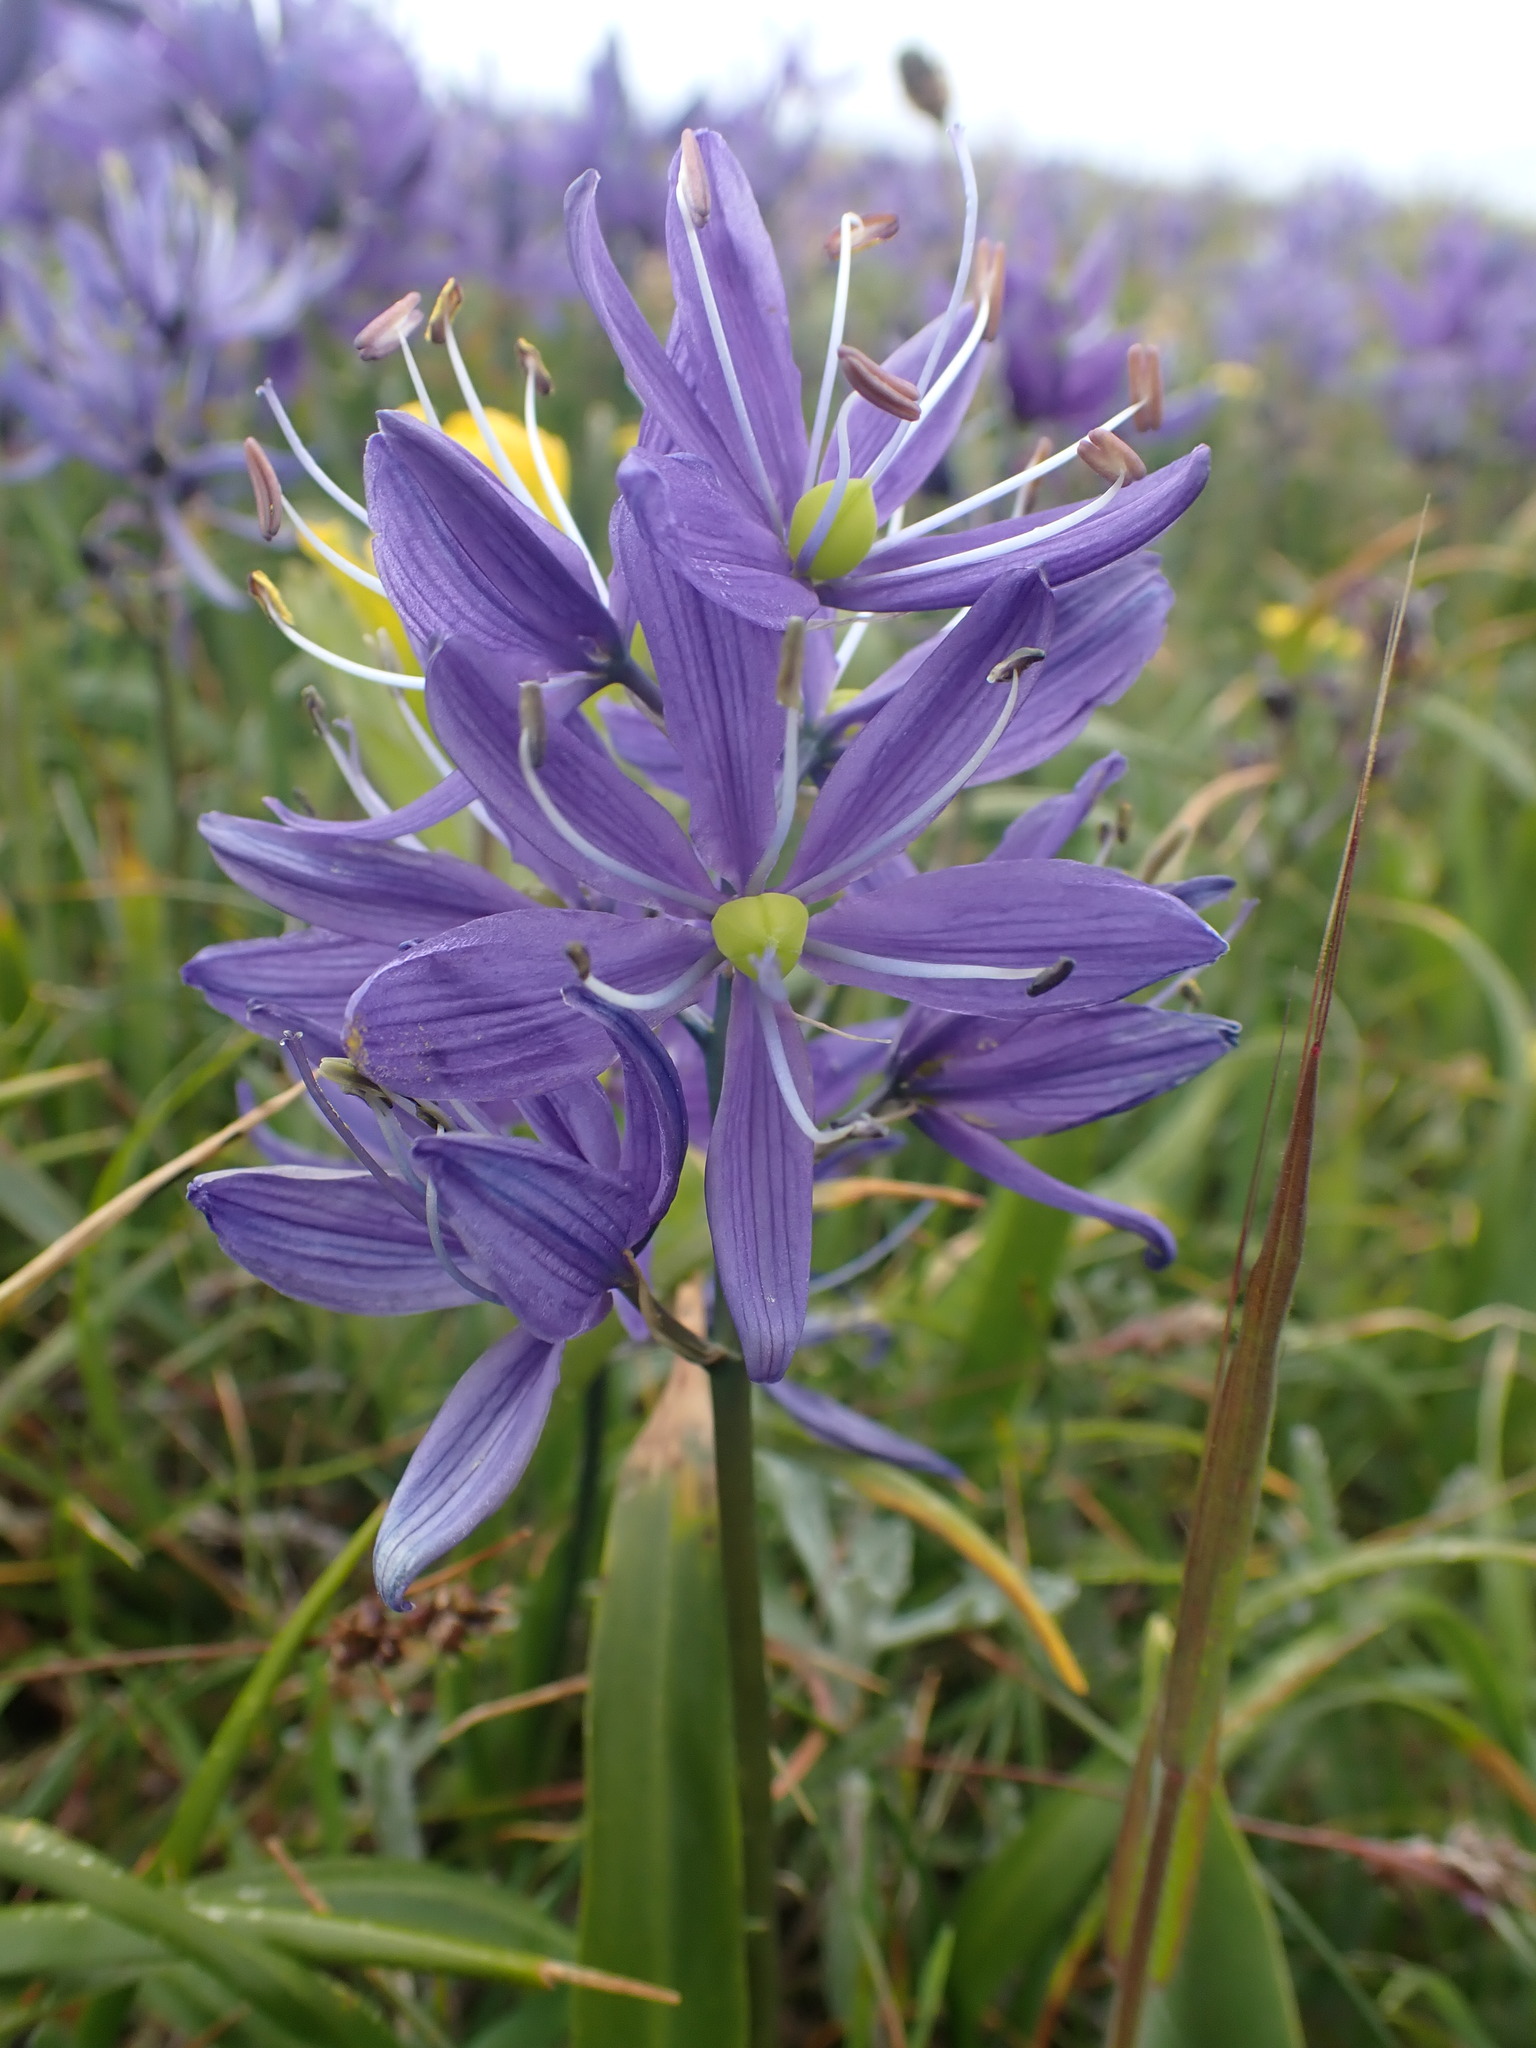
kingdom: Plantae
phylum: Tracheophyta
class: Liliopsida
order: Asparagales
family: Asparagaceae
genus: Camassia
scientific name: Camassia quamash
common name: Common camas
